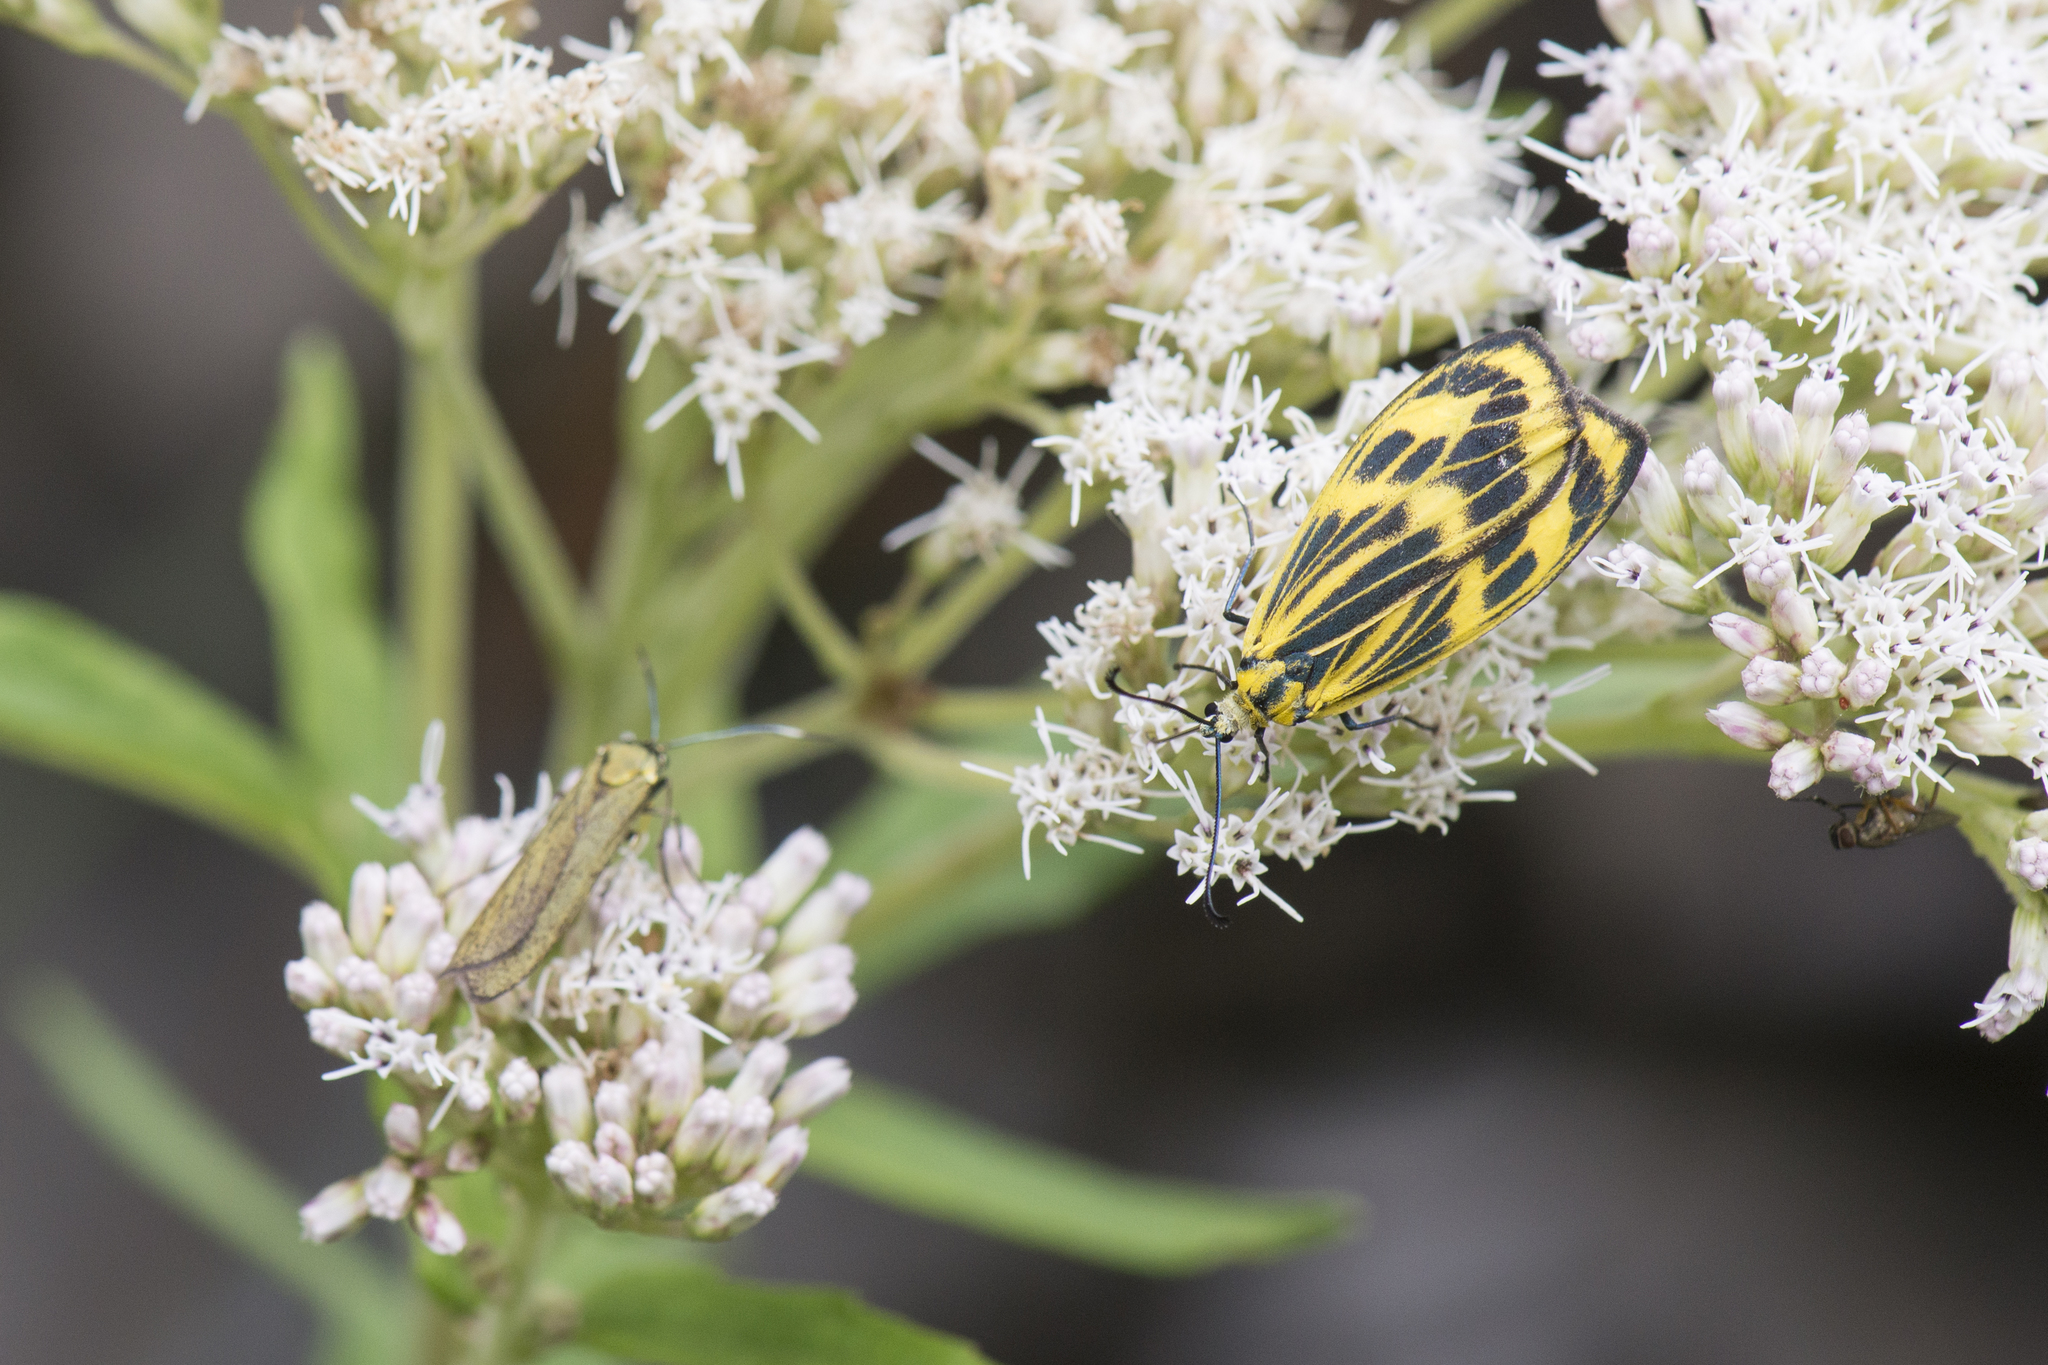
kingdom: Animalia
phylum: Arthropoda
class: Insecta
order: Lepidoptera
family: Zygaenidae
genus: Soritia
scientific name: Soritia choui
